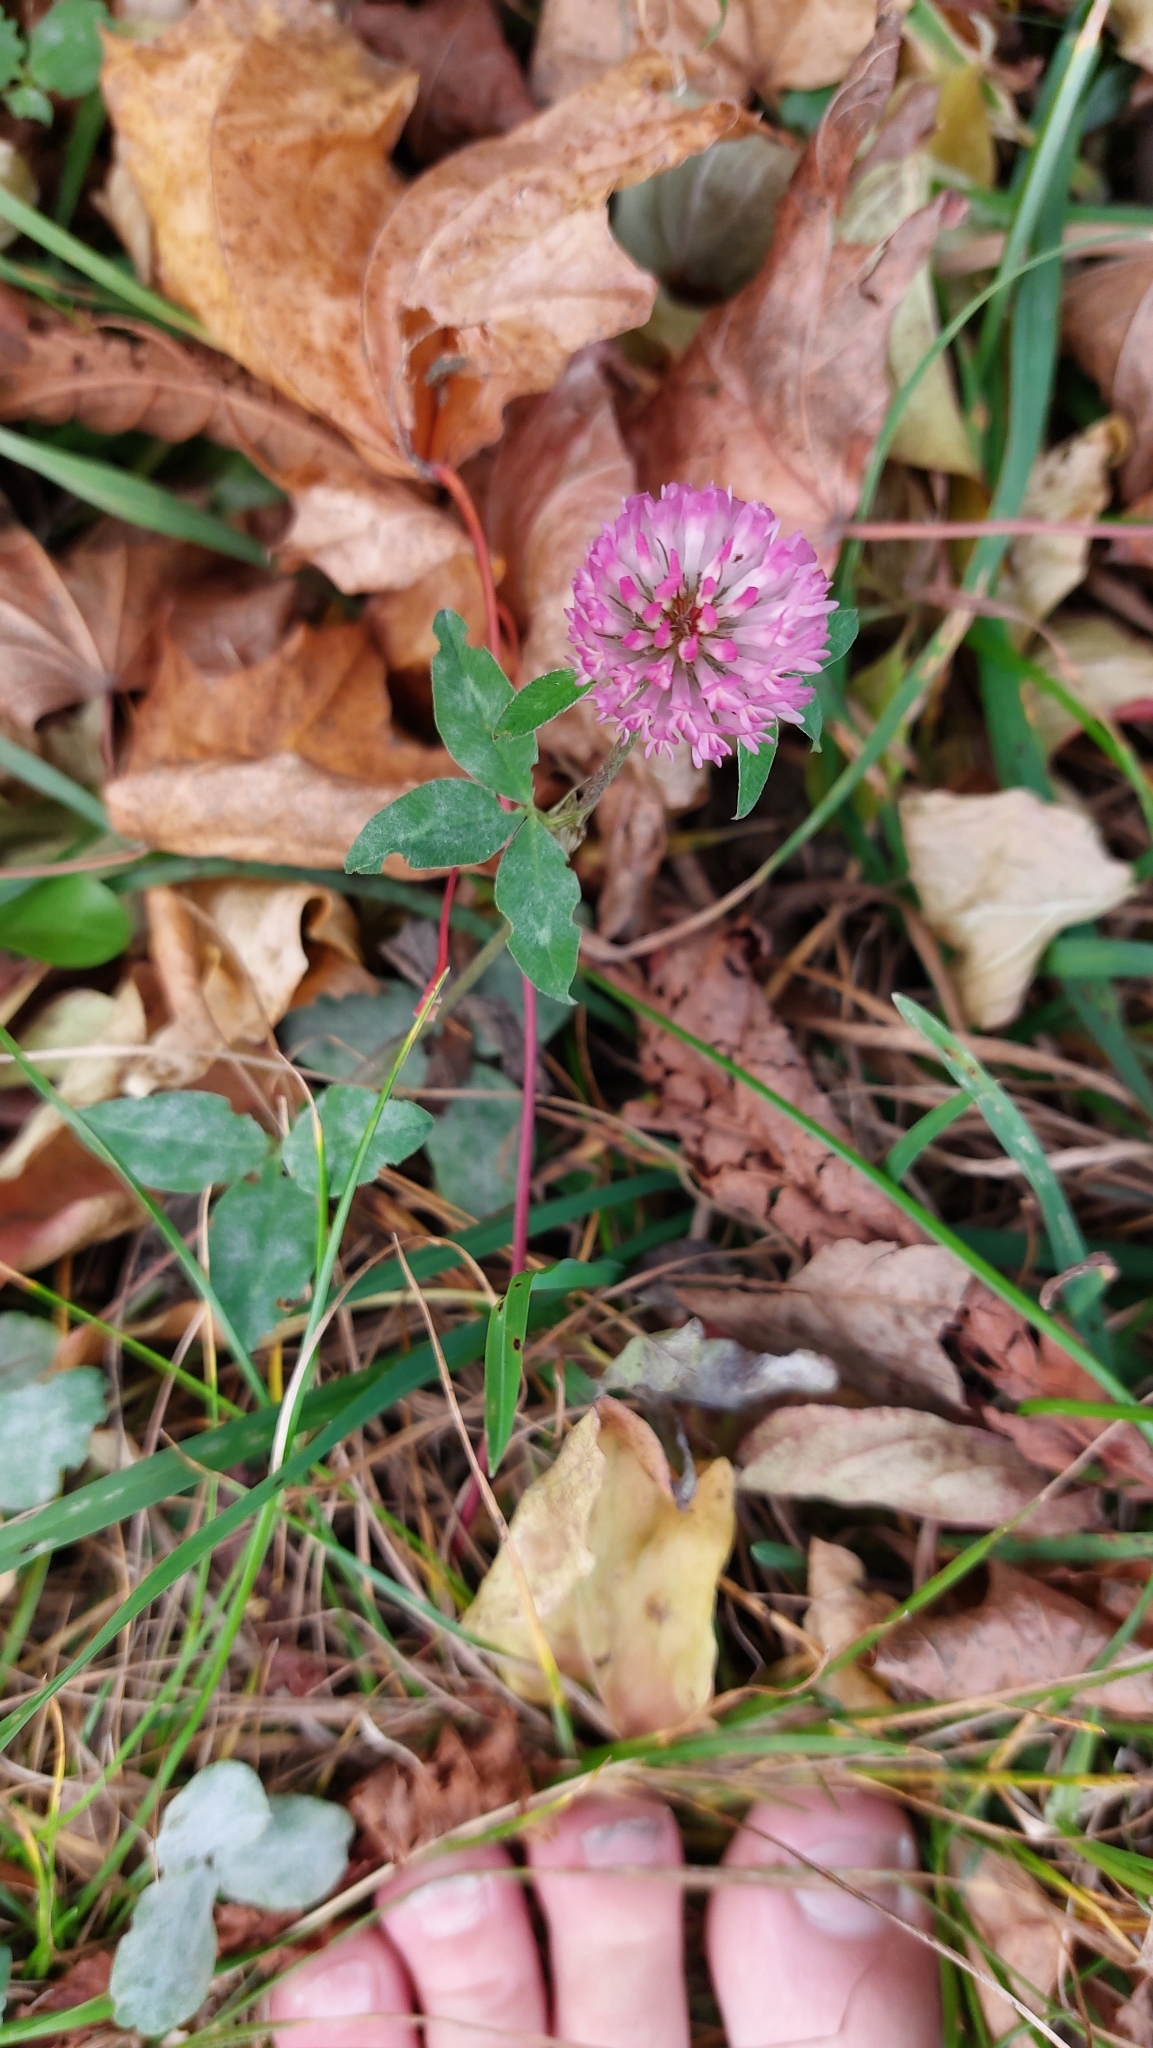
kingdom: Plantae
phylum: Tracheophyta
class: Magnoliopsida
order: Fabales
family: Fabaceae
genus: Trifolium
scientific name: Trifolium pratense
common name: Red clover
